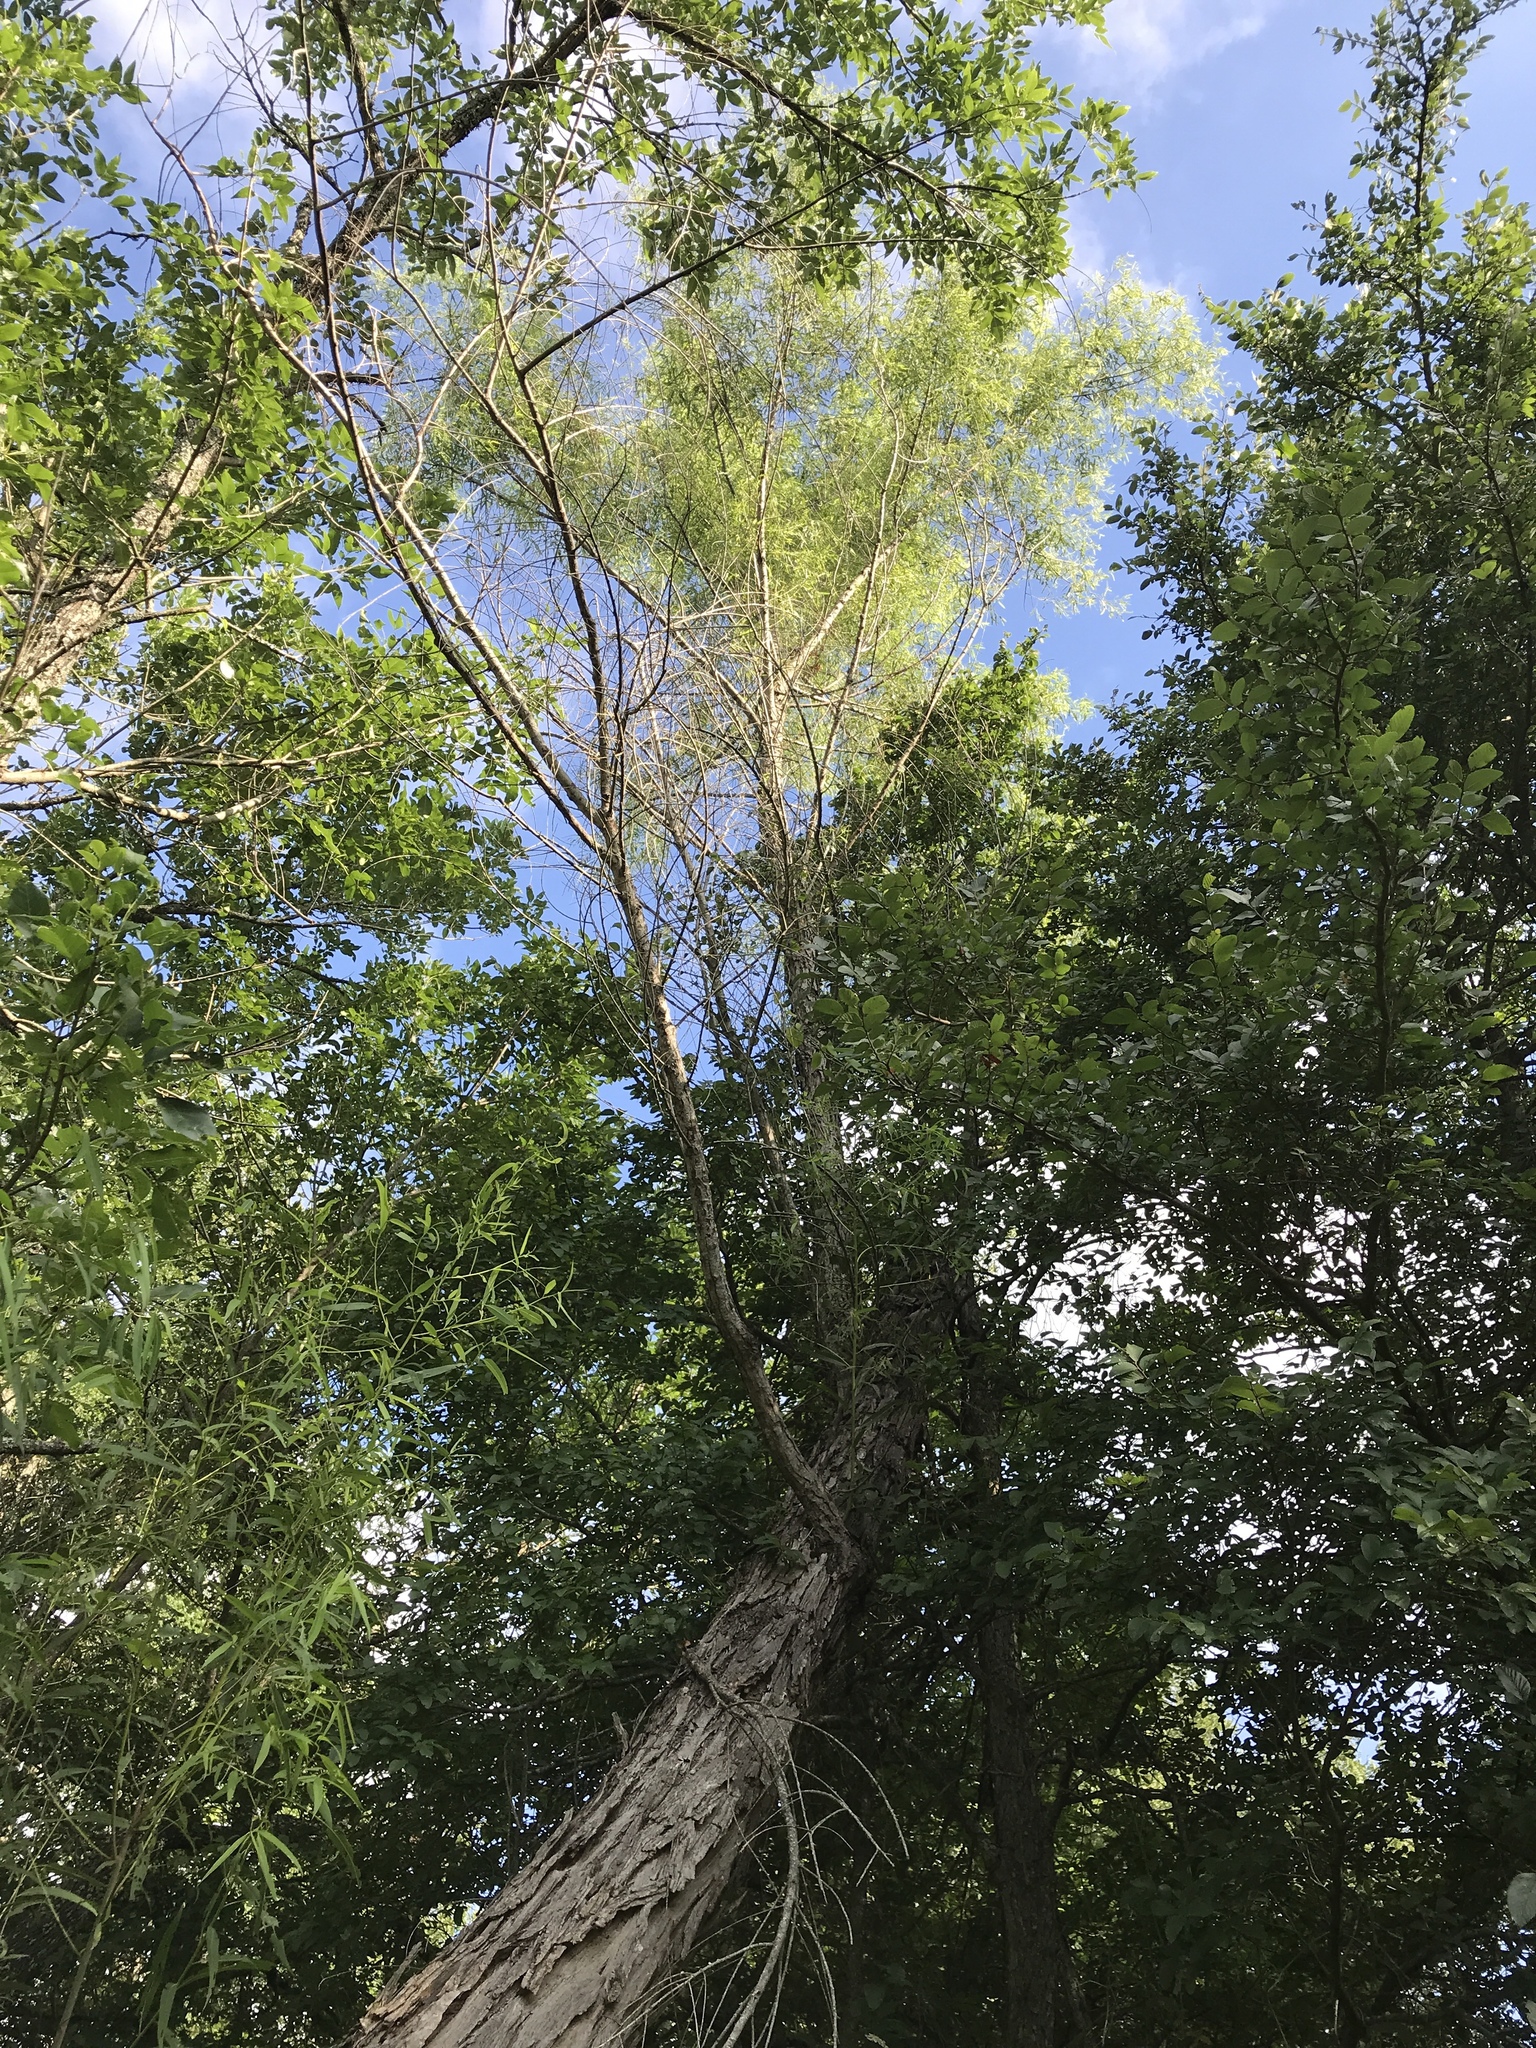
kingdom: Plantae
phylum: Tracheophyta
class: Magnoliopsida
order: Malpighiales
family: Salicaceae
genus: Salix
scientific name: Salix nigra
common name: Black willow
